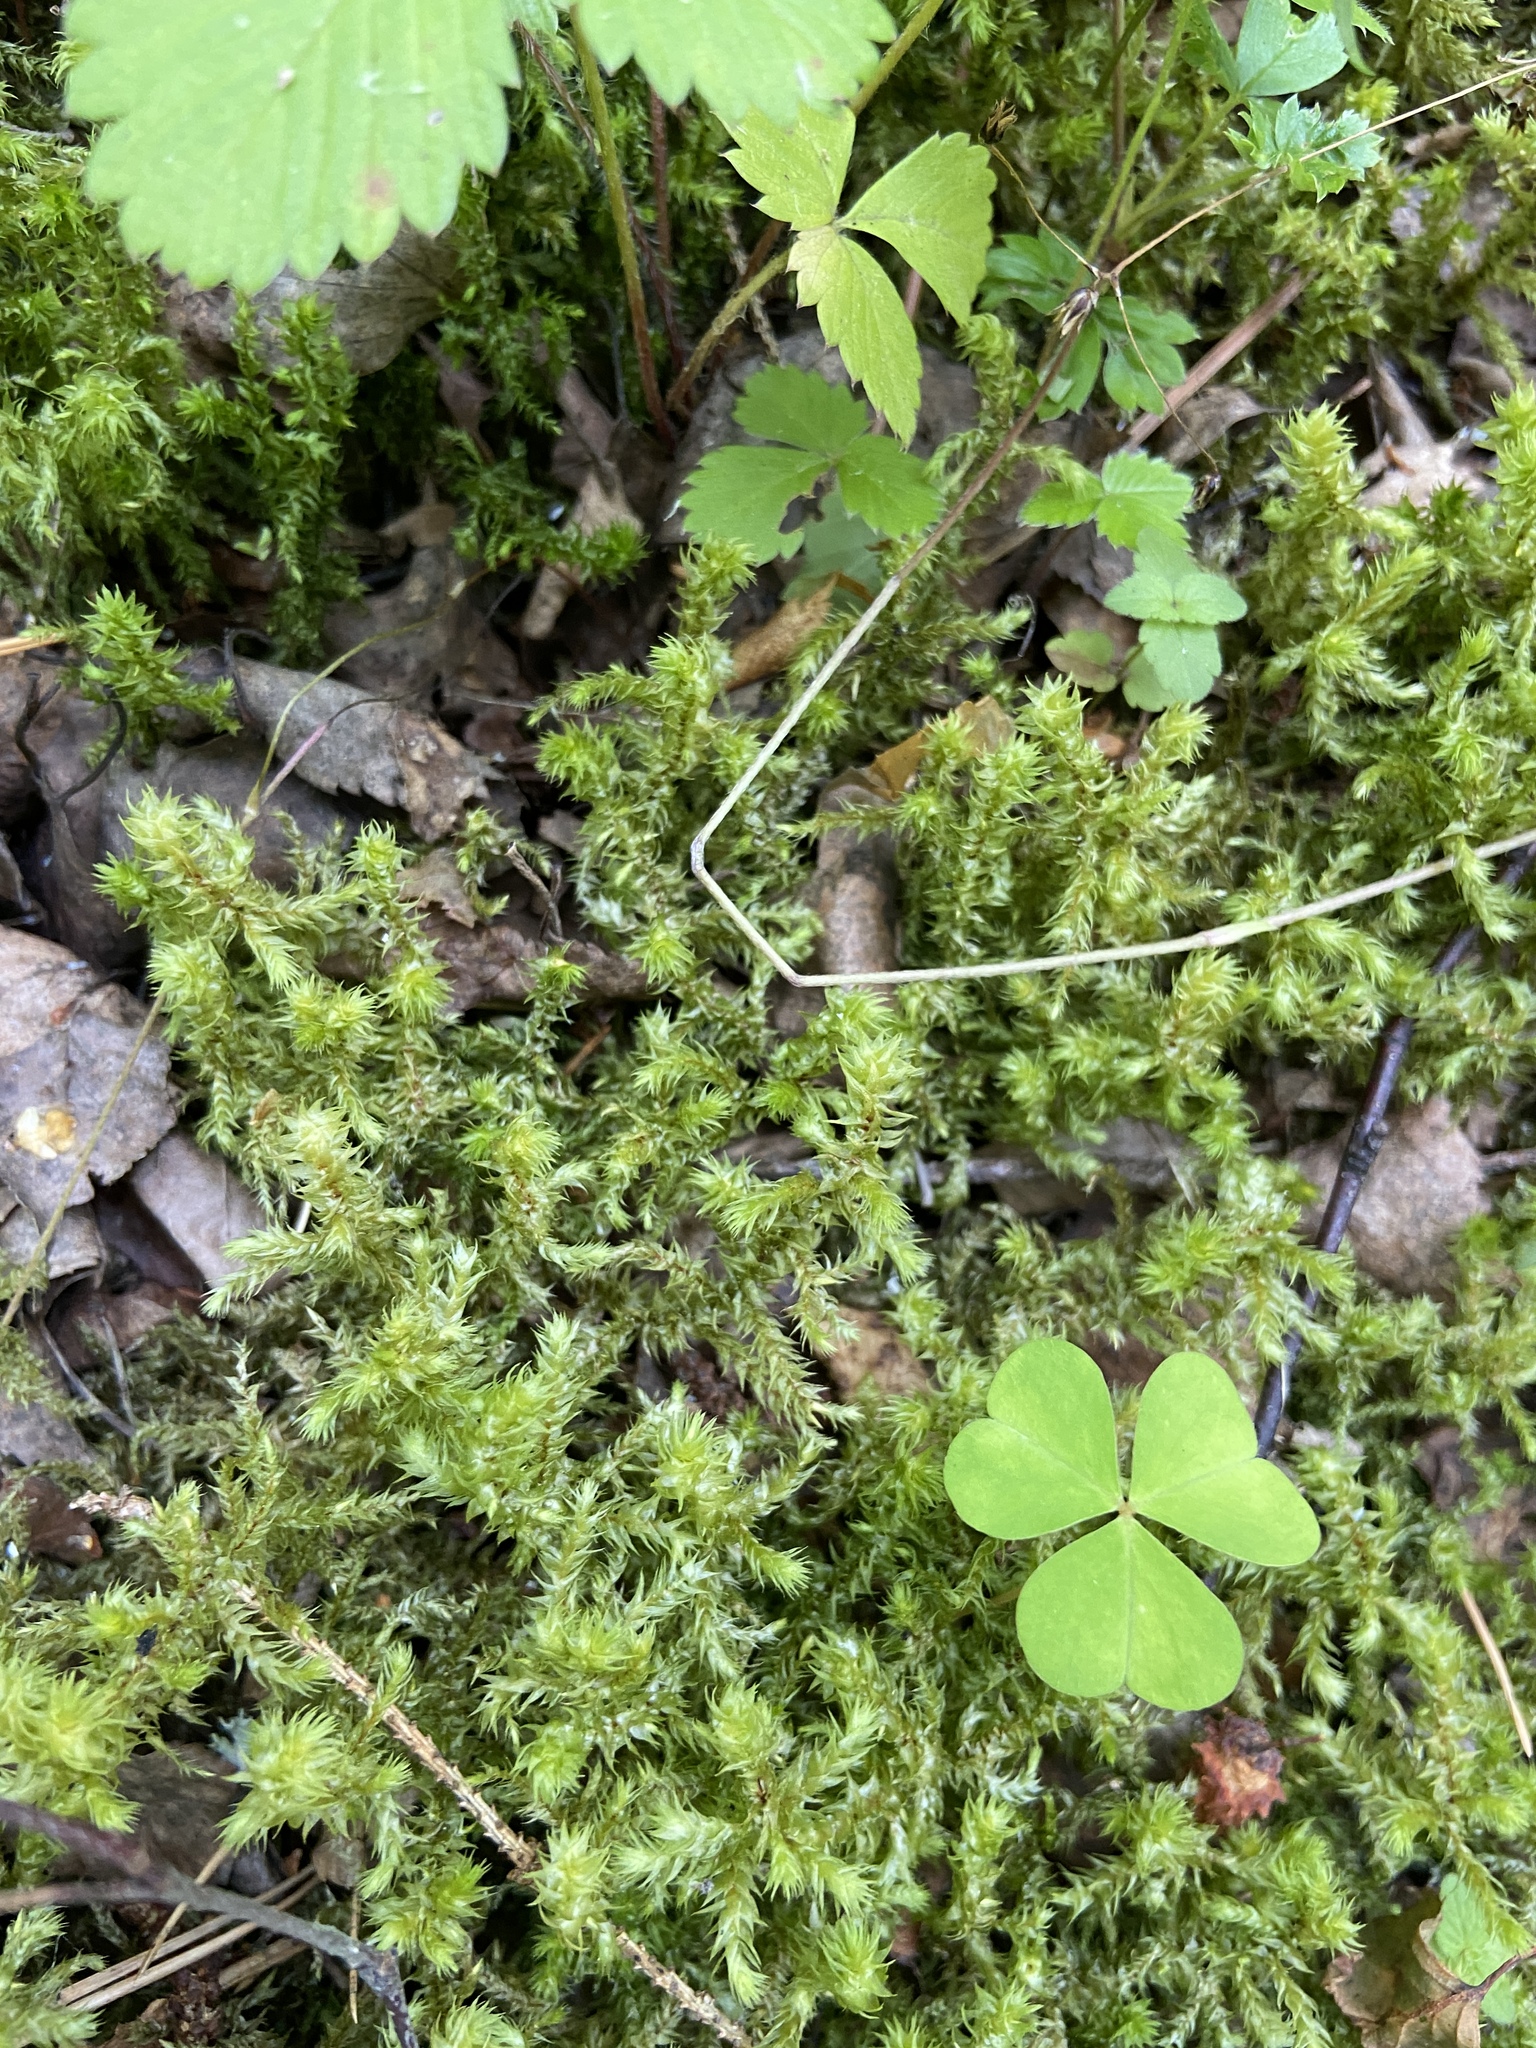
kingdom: Plantae
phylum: Bryophyta
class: Bryopsida
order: Hypnales
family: Hylocomiaceae
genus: Hylocomiadelphus
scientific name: Hylocomiadelphus triquetrus
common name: Rough goose neck moss
